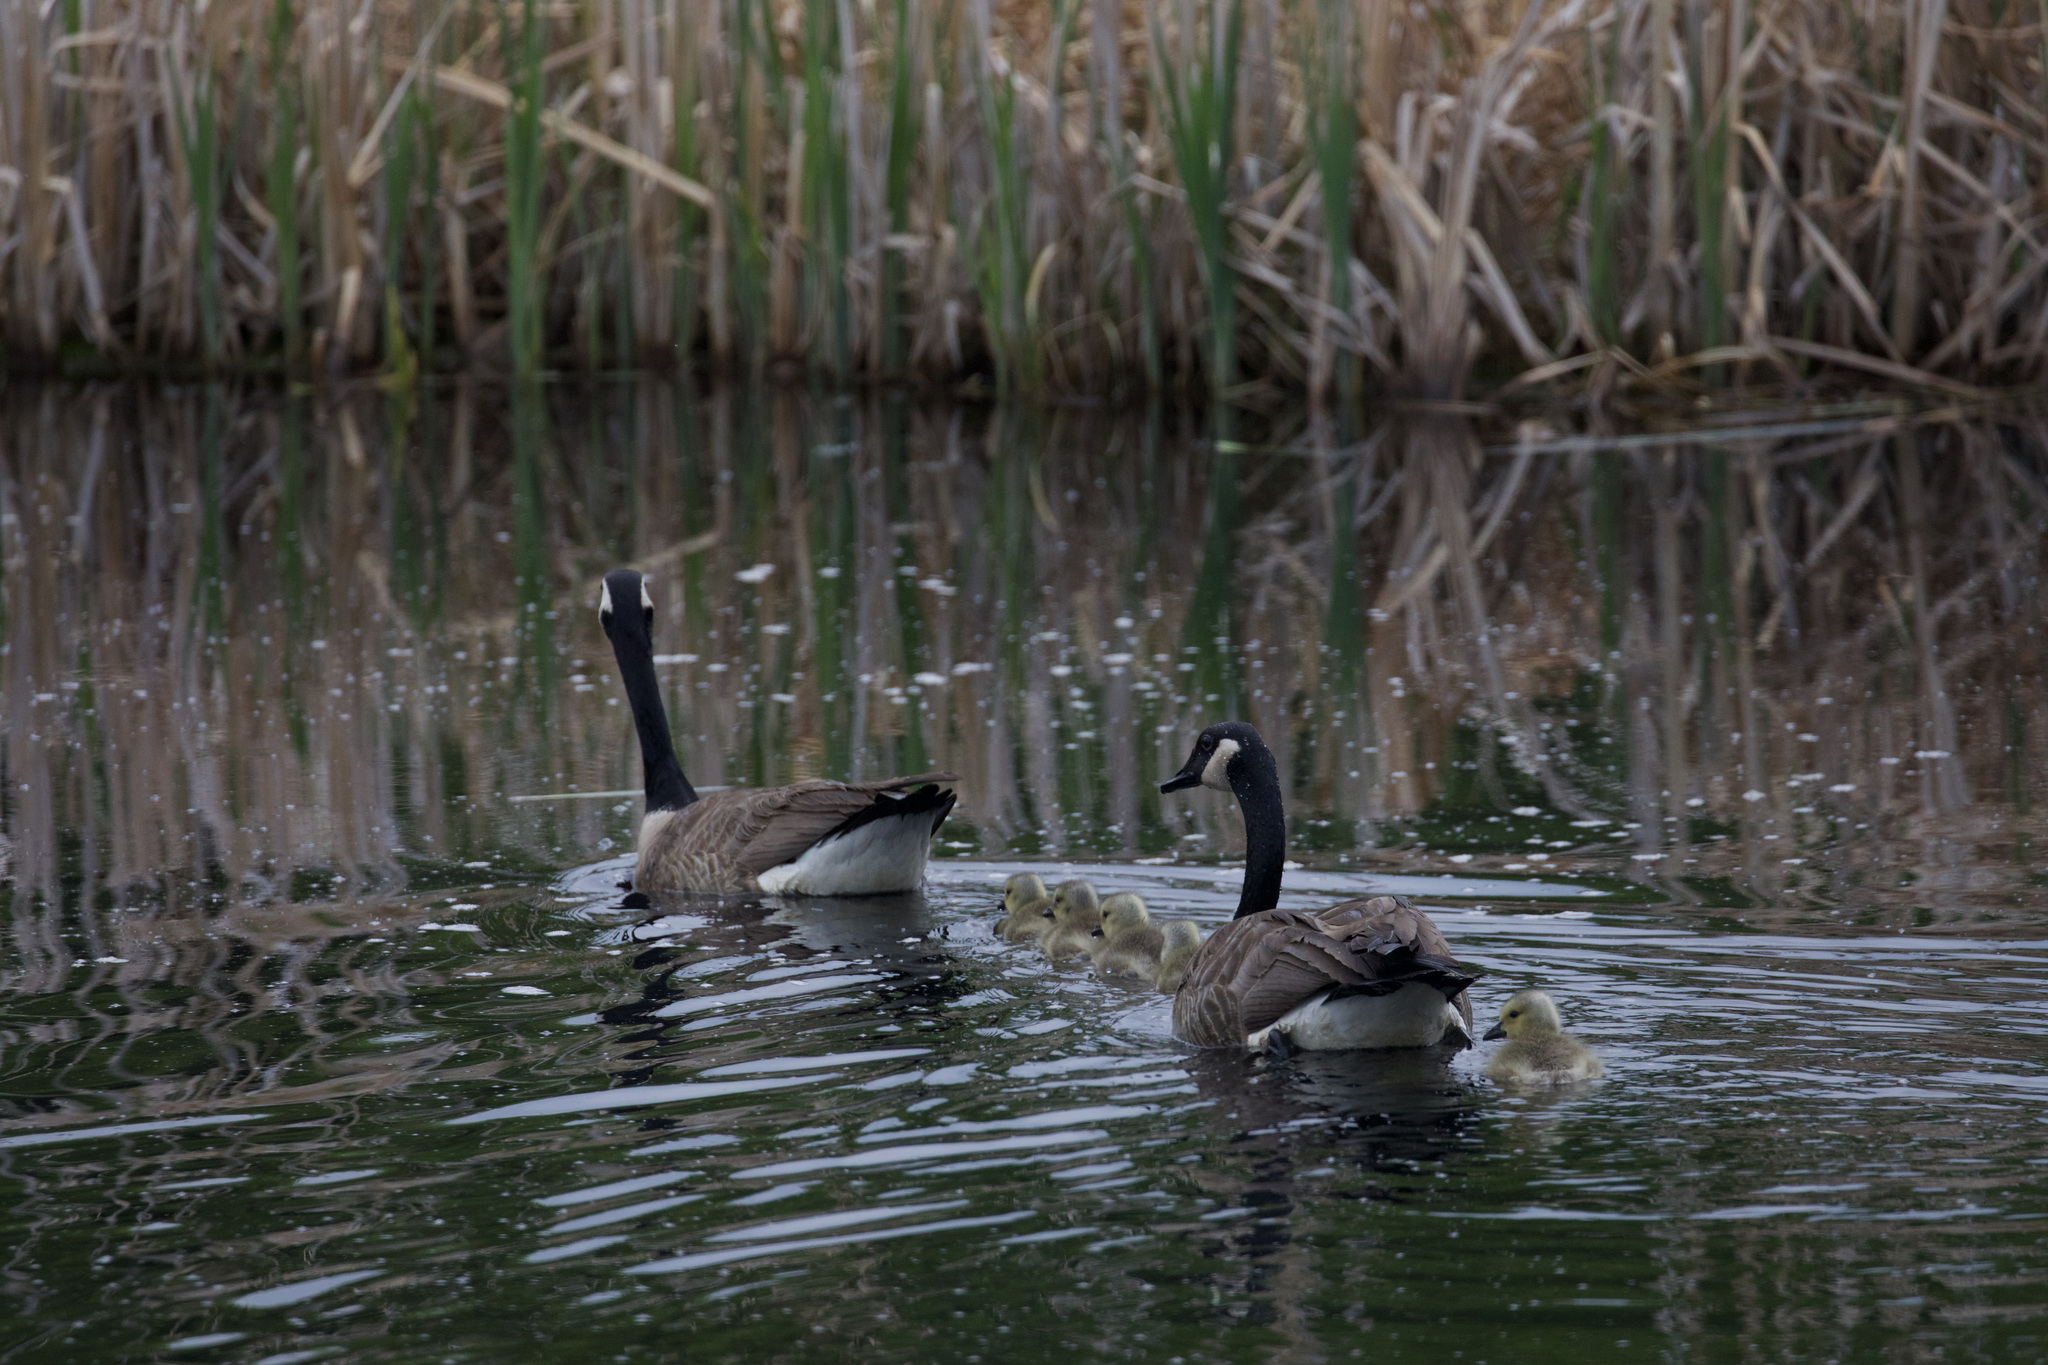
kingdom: Animalia
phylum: Chordata
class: Aves
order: Anseriformes
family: Anatidae
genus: Branta
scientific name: Branta canadensis
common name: Canada goose
